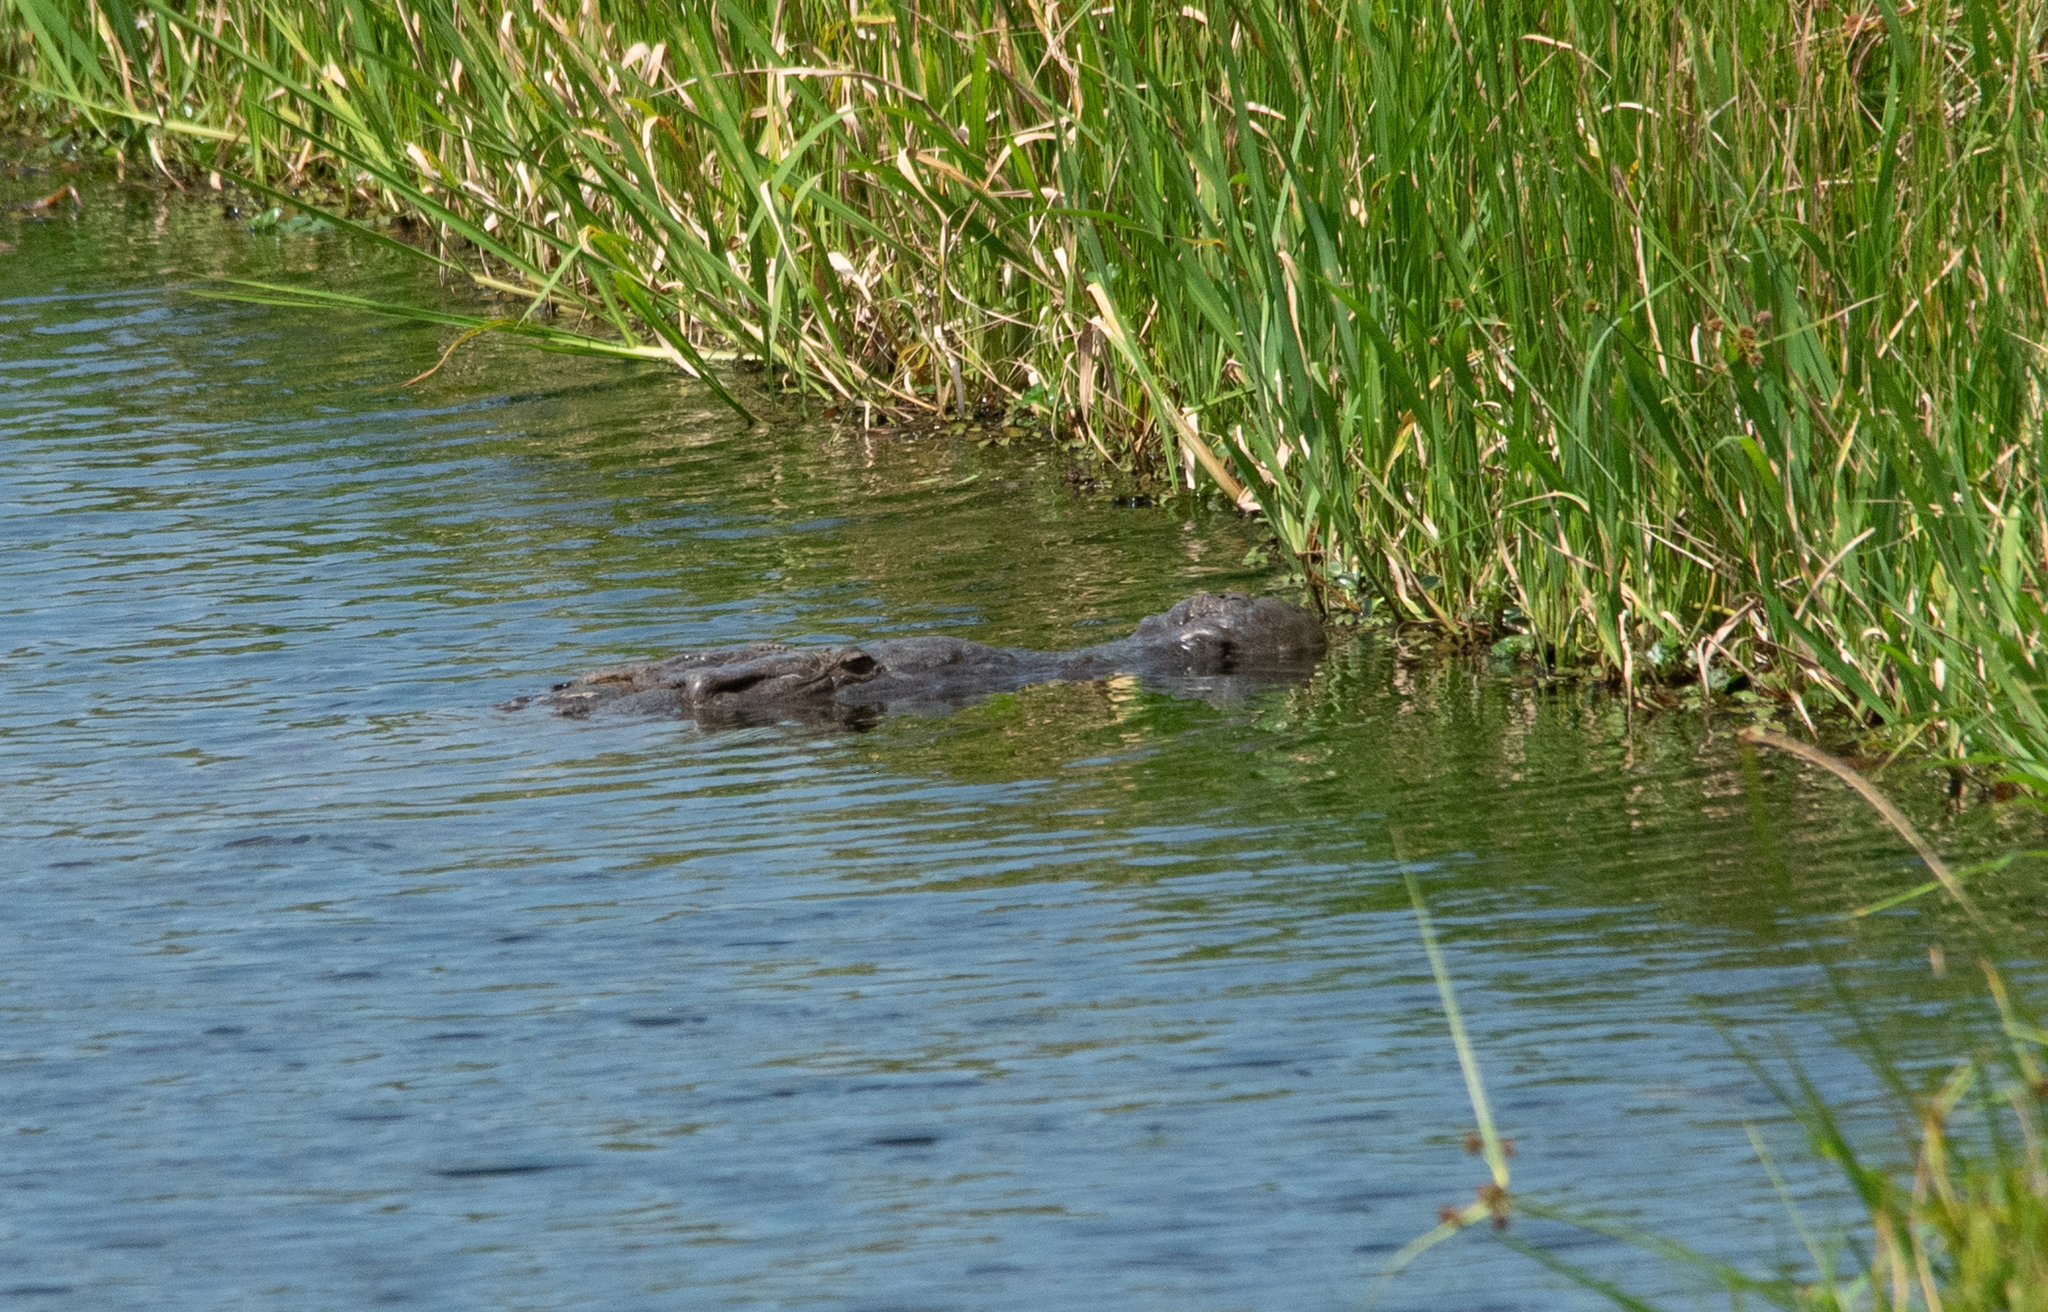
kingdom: Animalia
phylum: Chordata
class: Crocodylia
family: Crocodylidae
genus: Crocodylus
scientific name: Crocodylus acutus
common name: American crocodile
